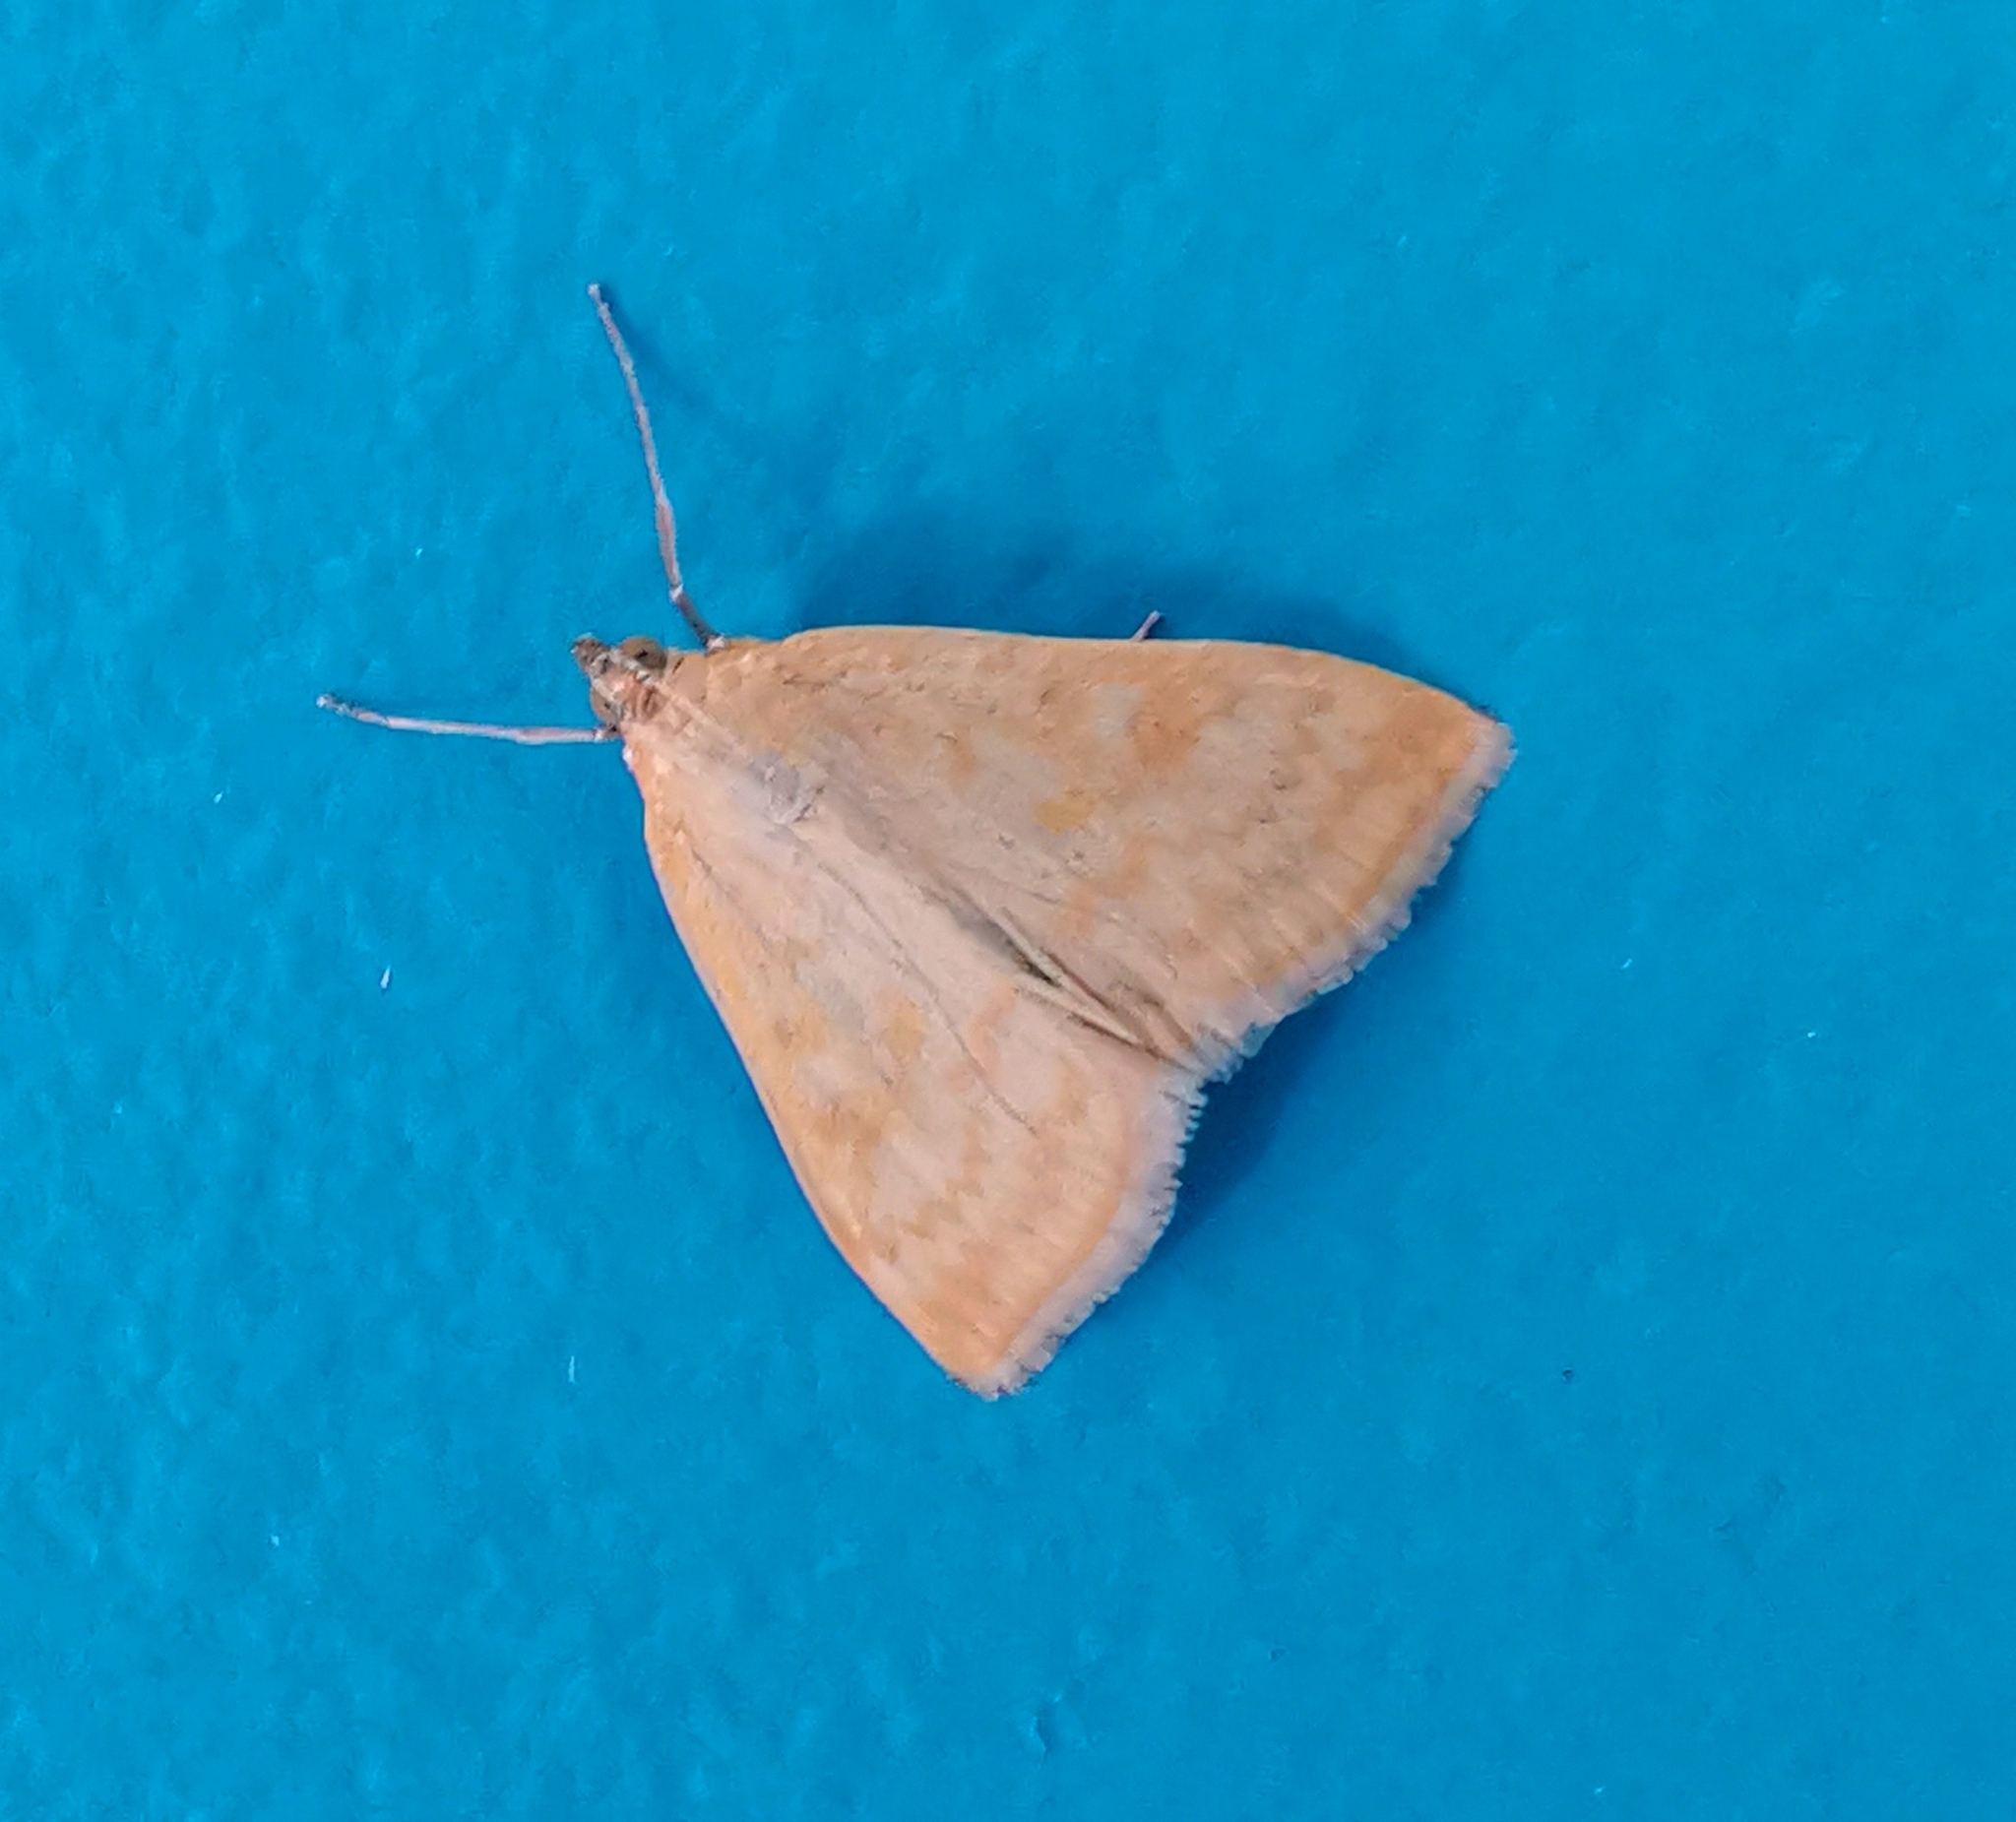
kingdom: Animalia
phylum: Arthropoda
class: Insecta
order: Lepidoptera
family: Crambidae
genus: Sitochroa
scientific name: Sitochroa verticalis
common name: Lesser pearl
